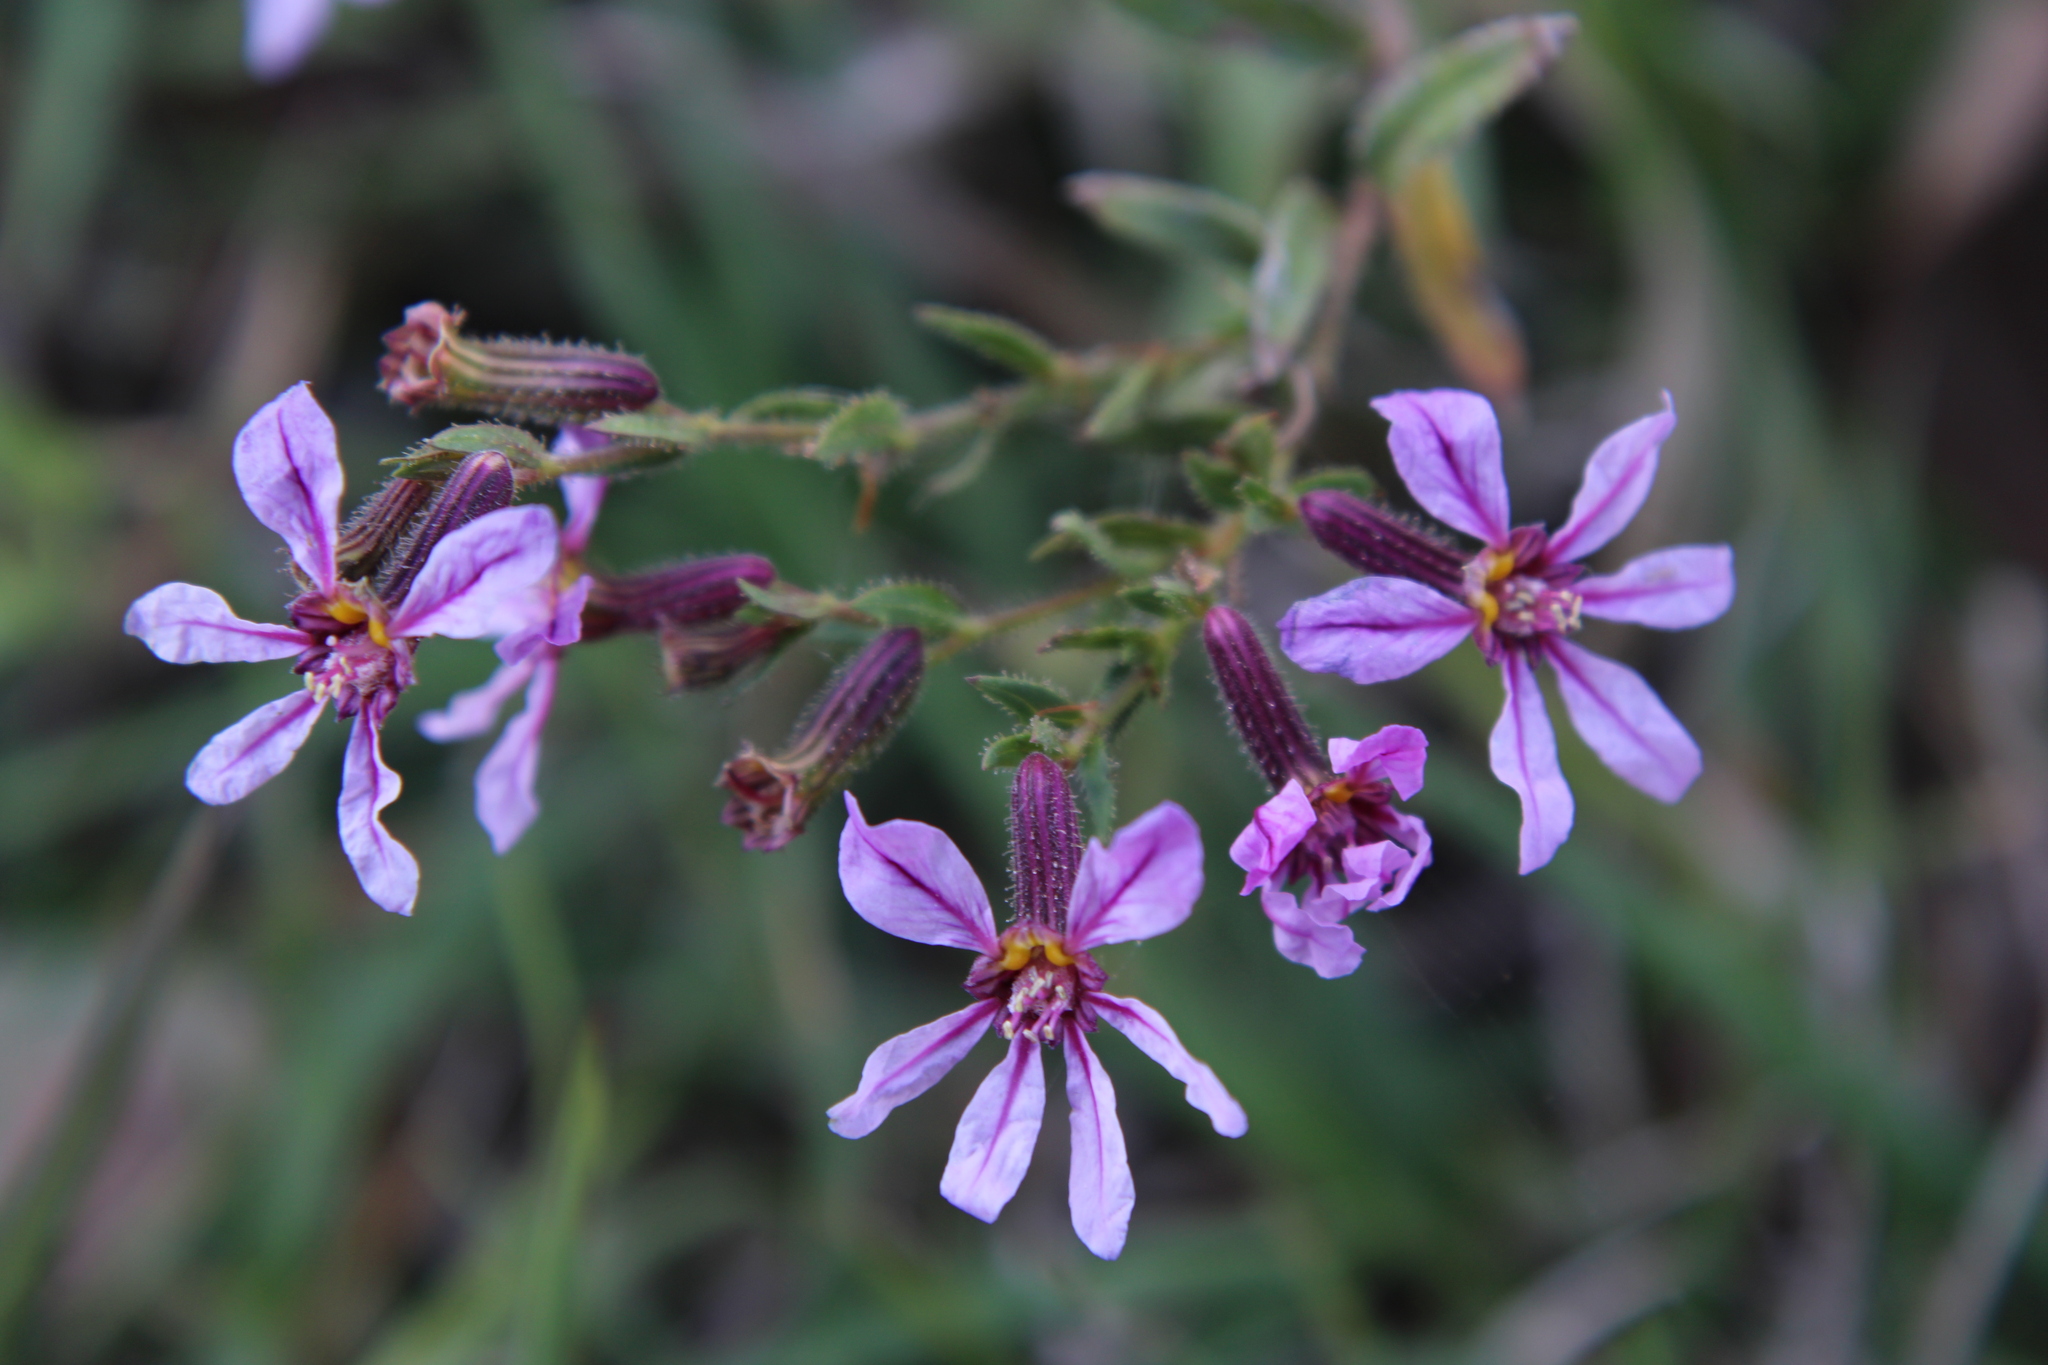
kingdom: Plantae
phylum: Tracheophyta
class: Magnoliopsida
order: Myrtales
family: Lythraceae
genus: Cuphea
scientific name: Cuphea glutinosa
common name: Sticky waxweed
